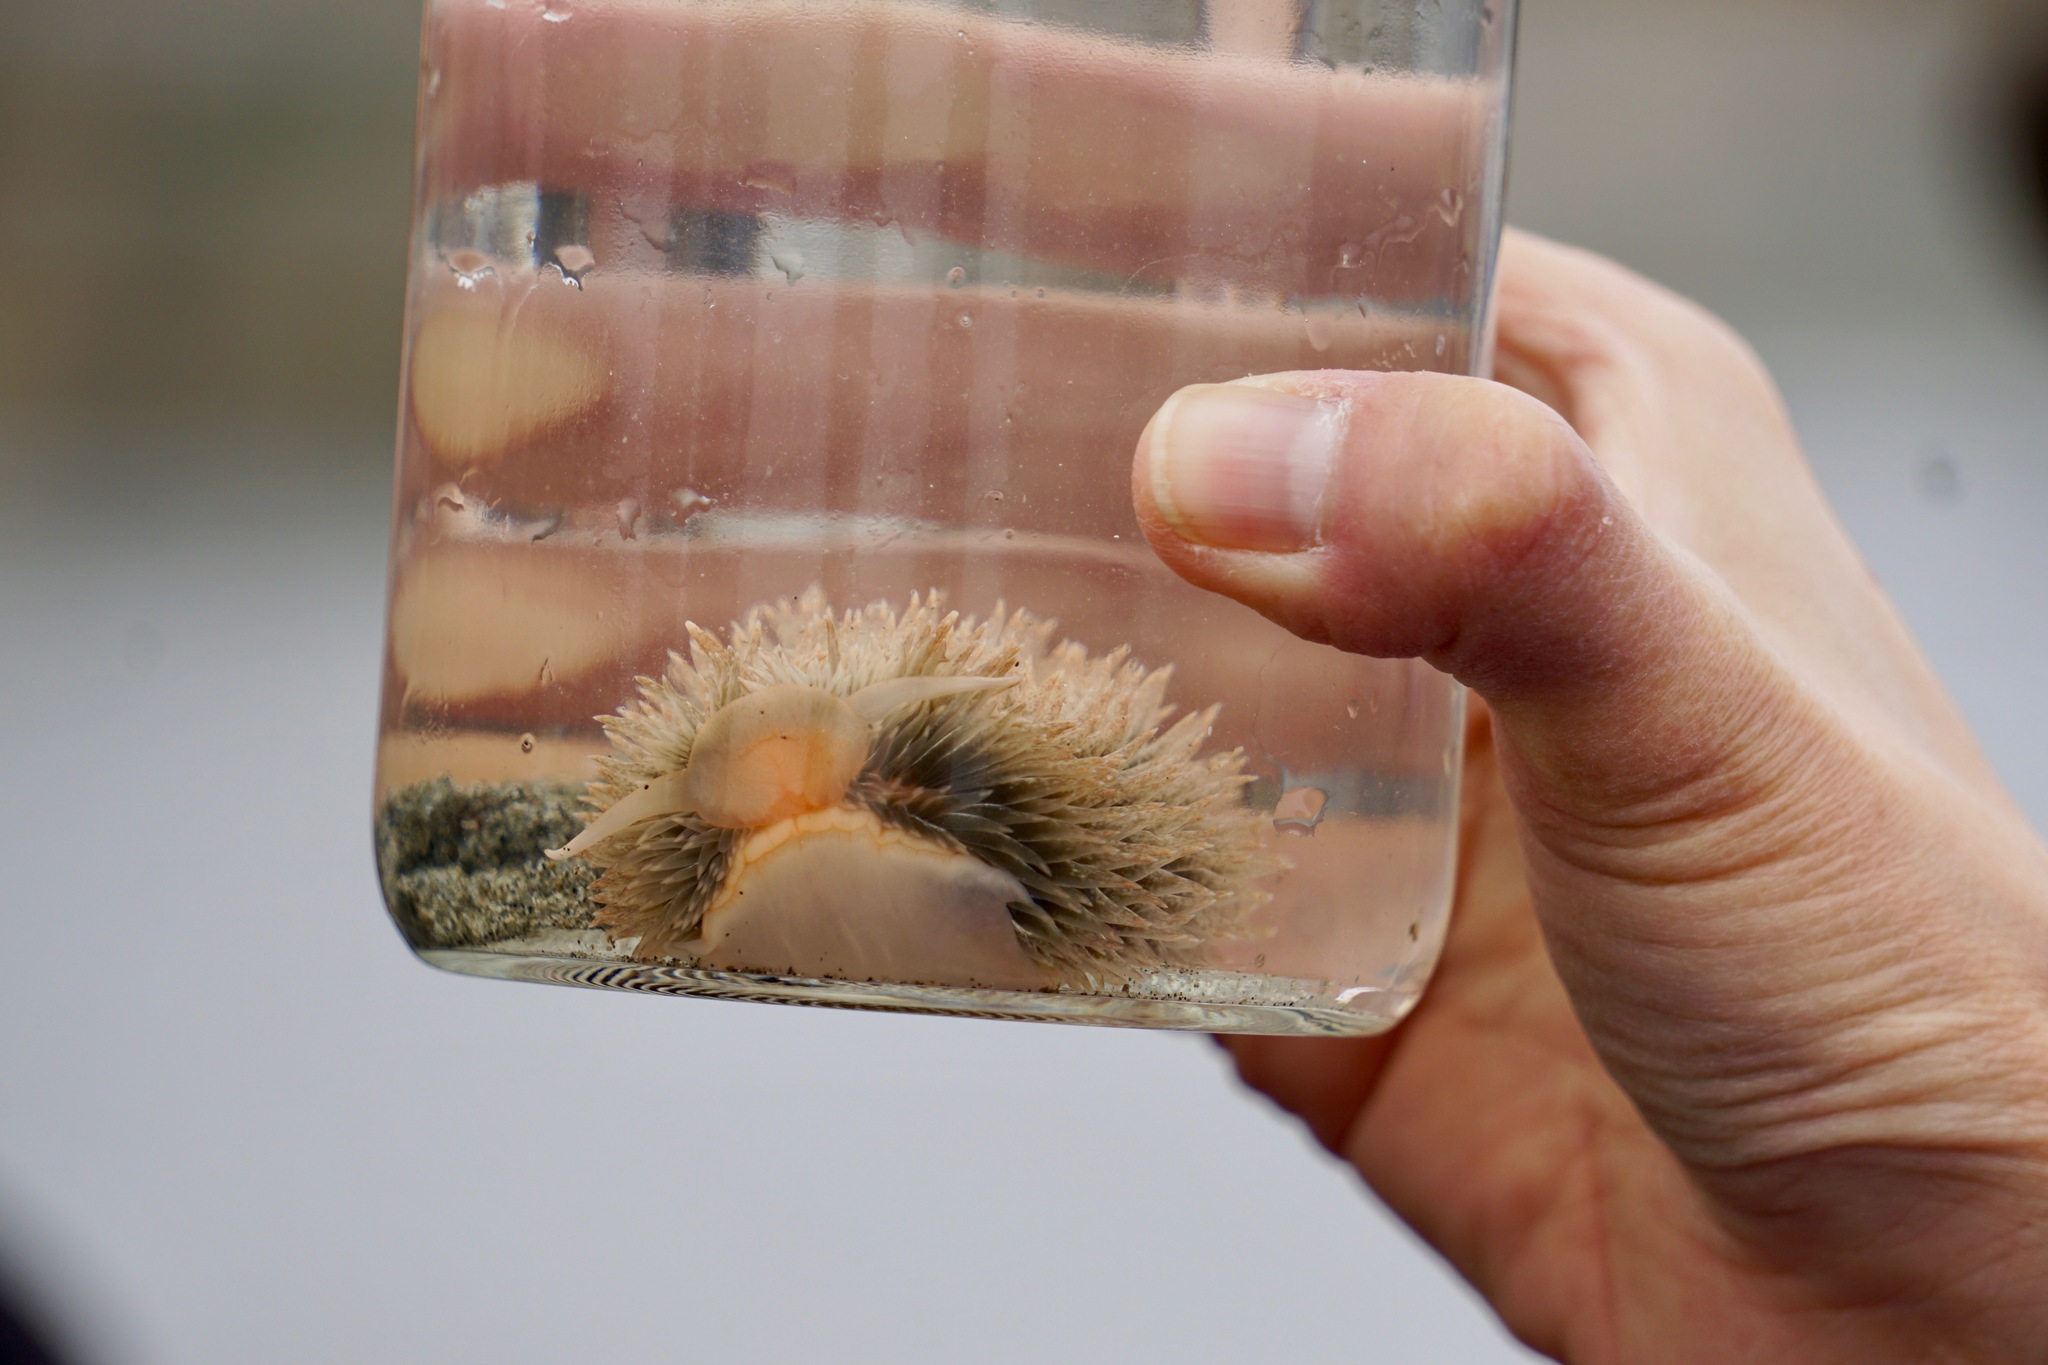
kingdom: Animalia
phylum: Mollusca
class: Gastropoda
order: Nudibranchia
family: Aeolidiidae
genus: Aeolidia
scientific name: Aeolidia loui
